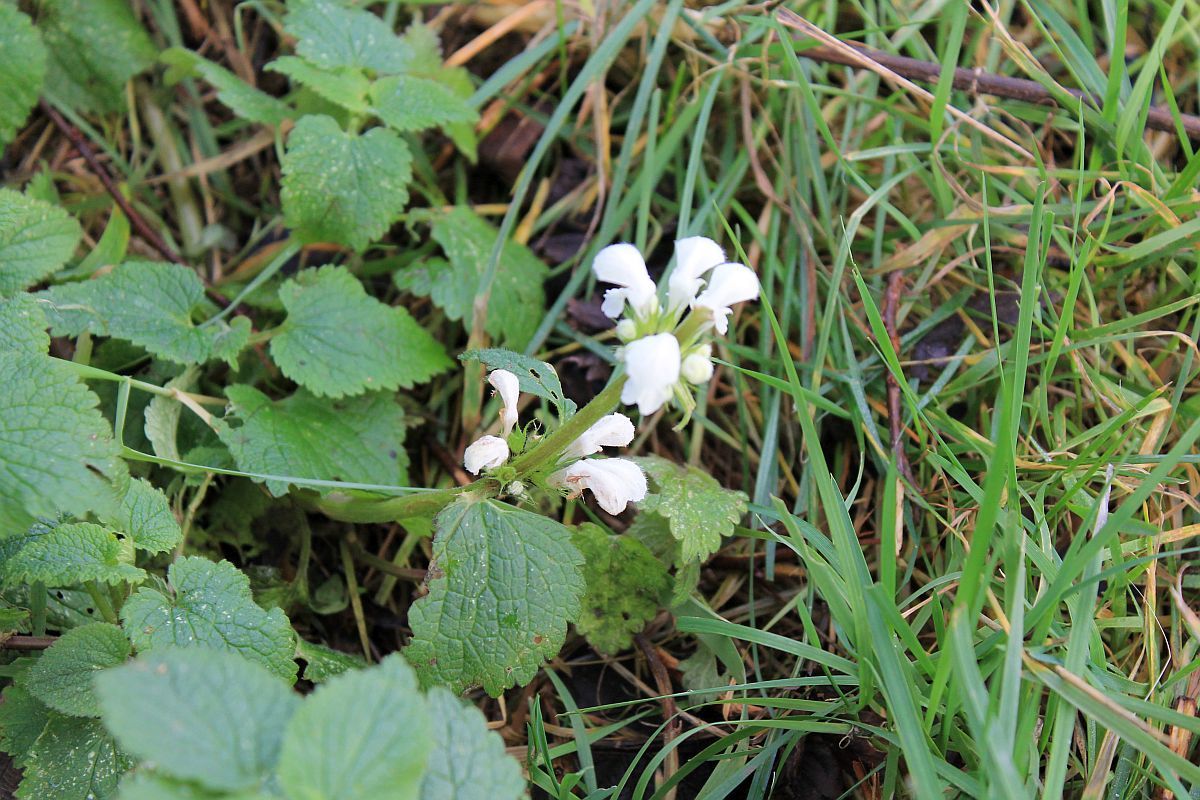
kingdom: Plantae
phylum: Tracheophyta
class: Magnoliopsida
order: Lamiales
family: Lamiaceae
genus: Lamium
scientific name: Lamium album
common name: White dead-nettle
